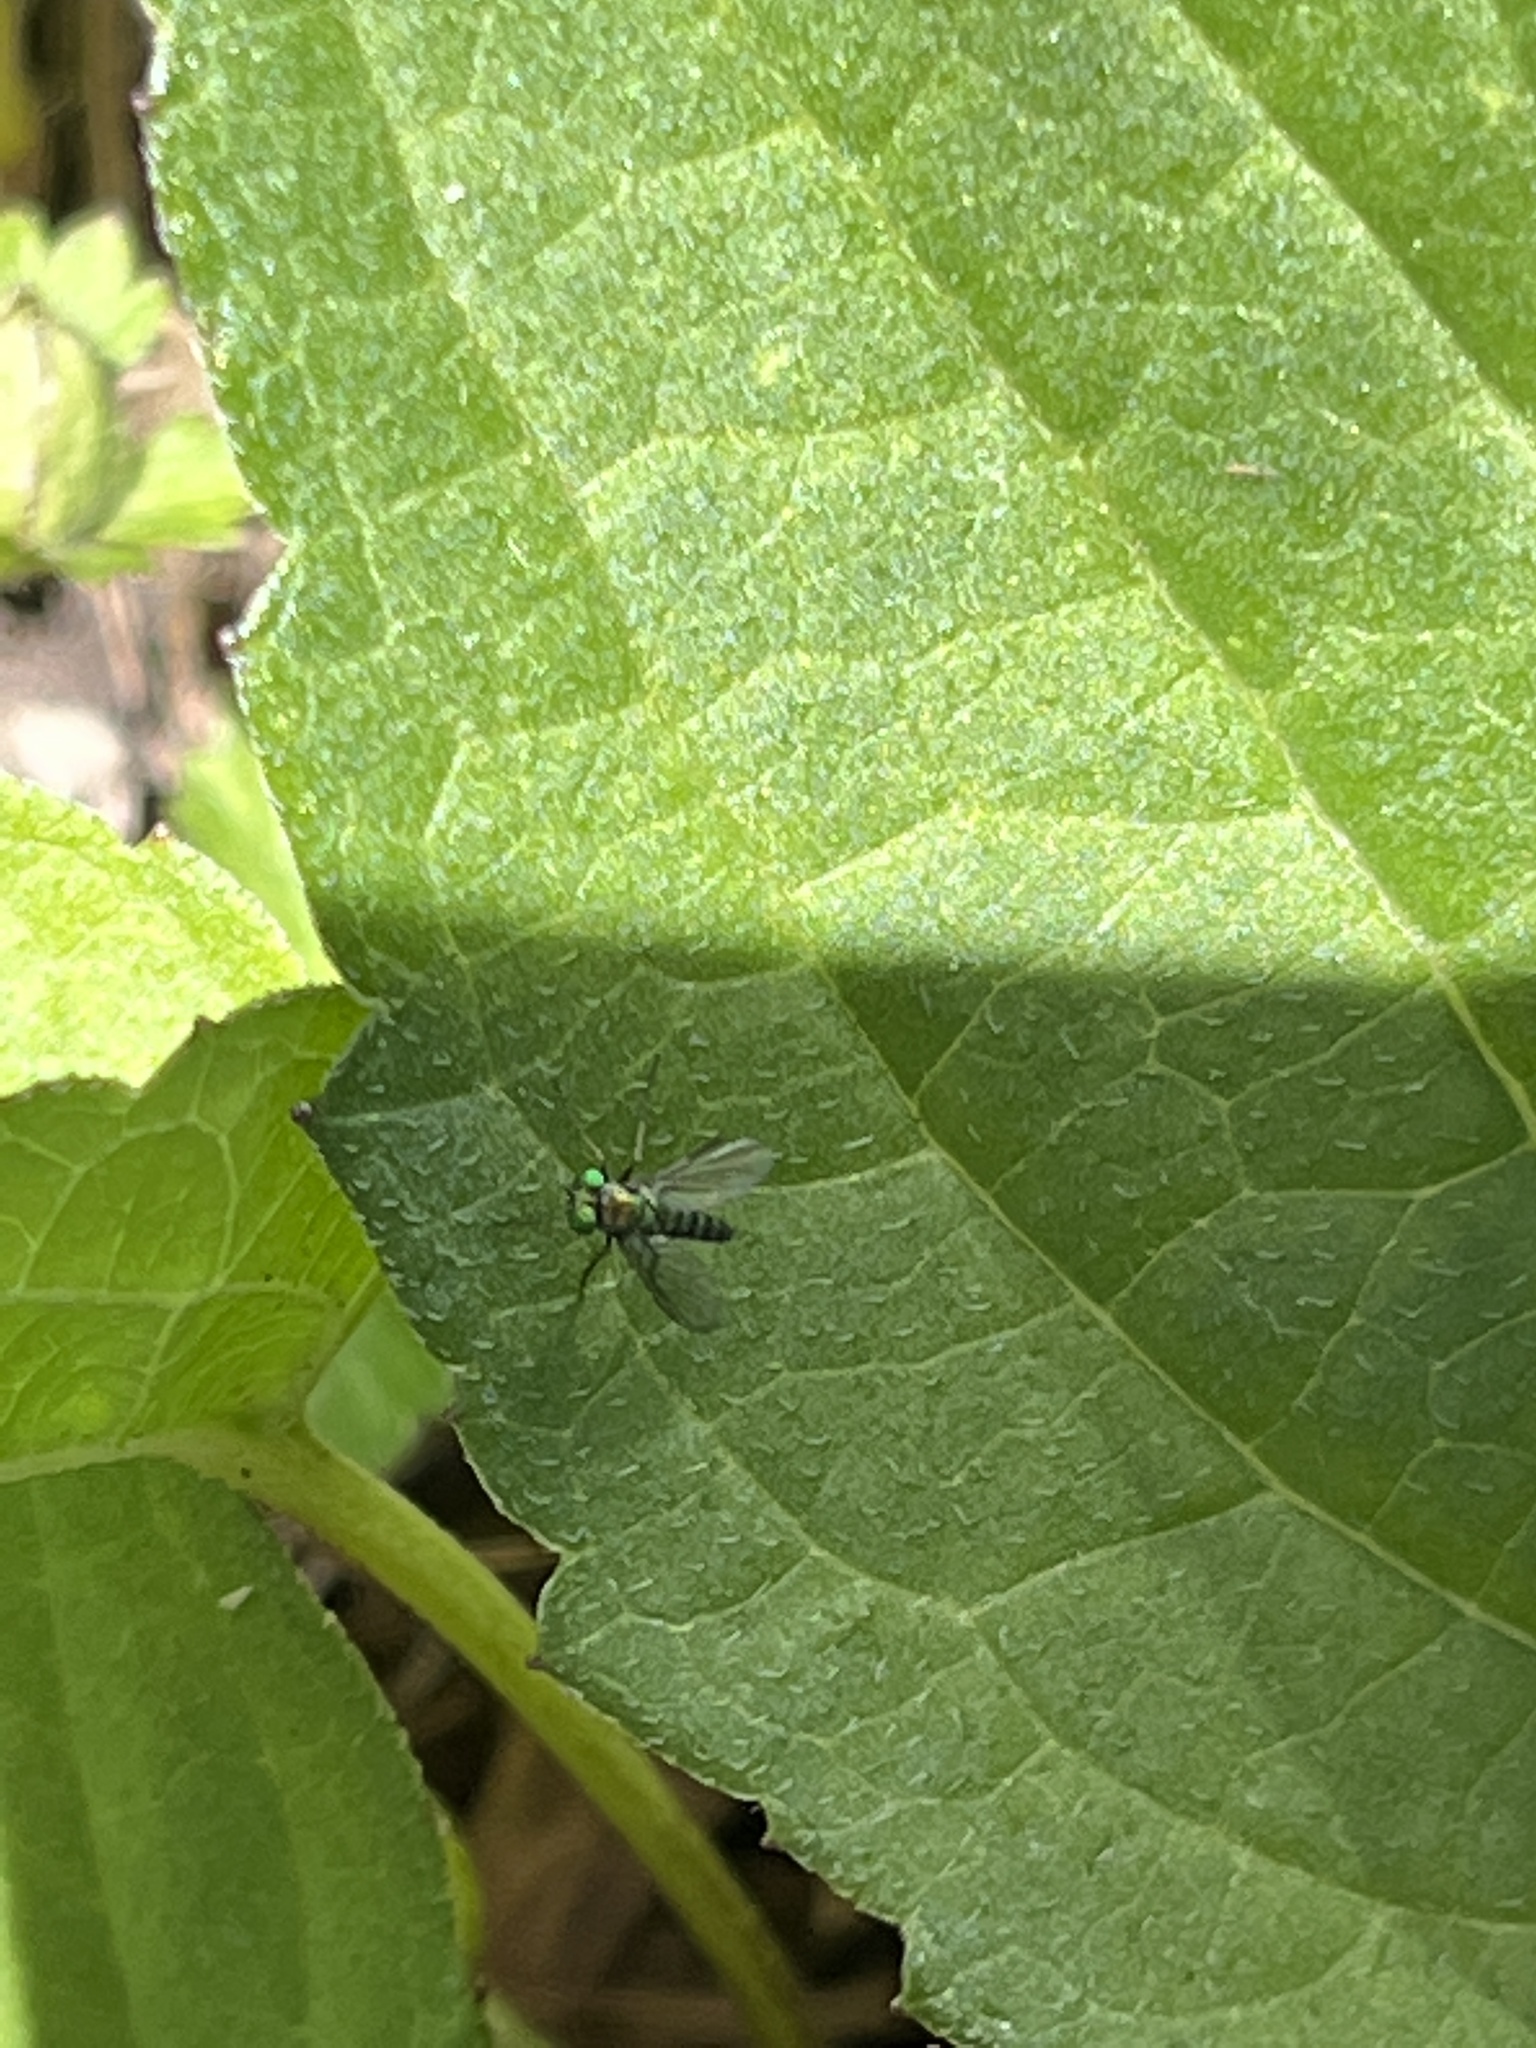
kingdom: Animalia
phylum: Arthropoda
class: Insecta
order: Diptera
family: Dolichopodidae
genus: Condylostylus
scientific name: Condylostylus
